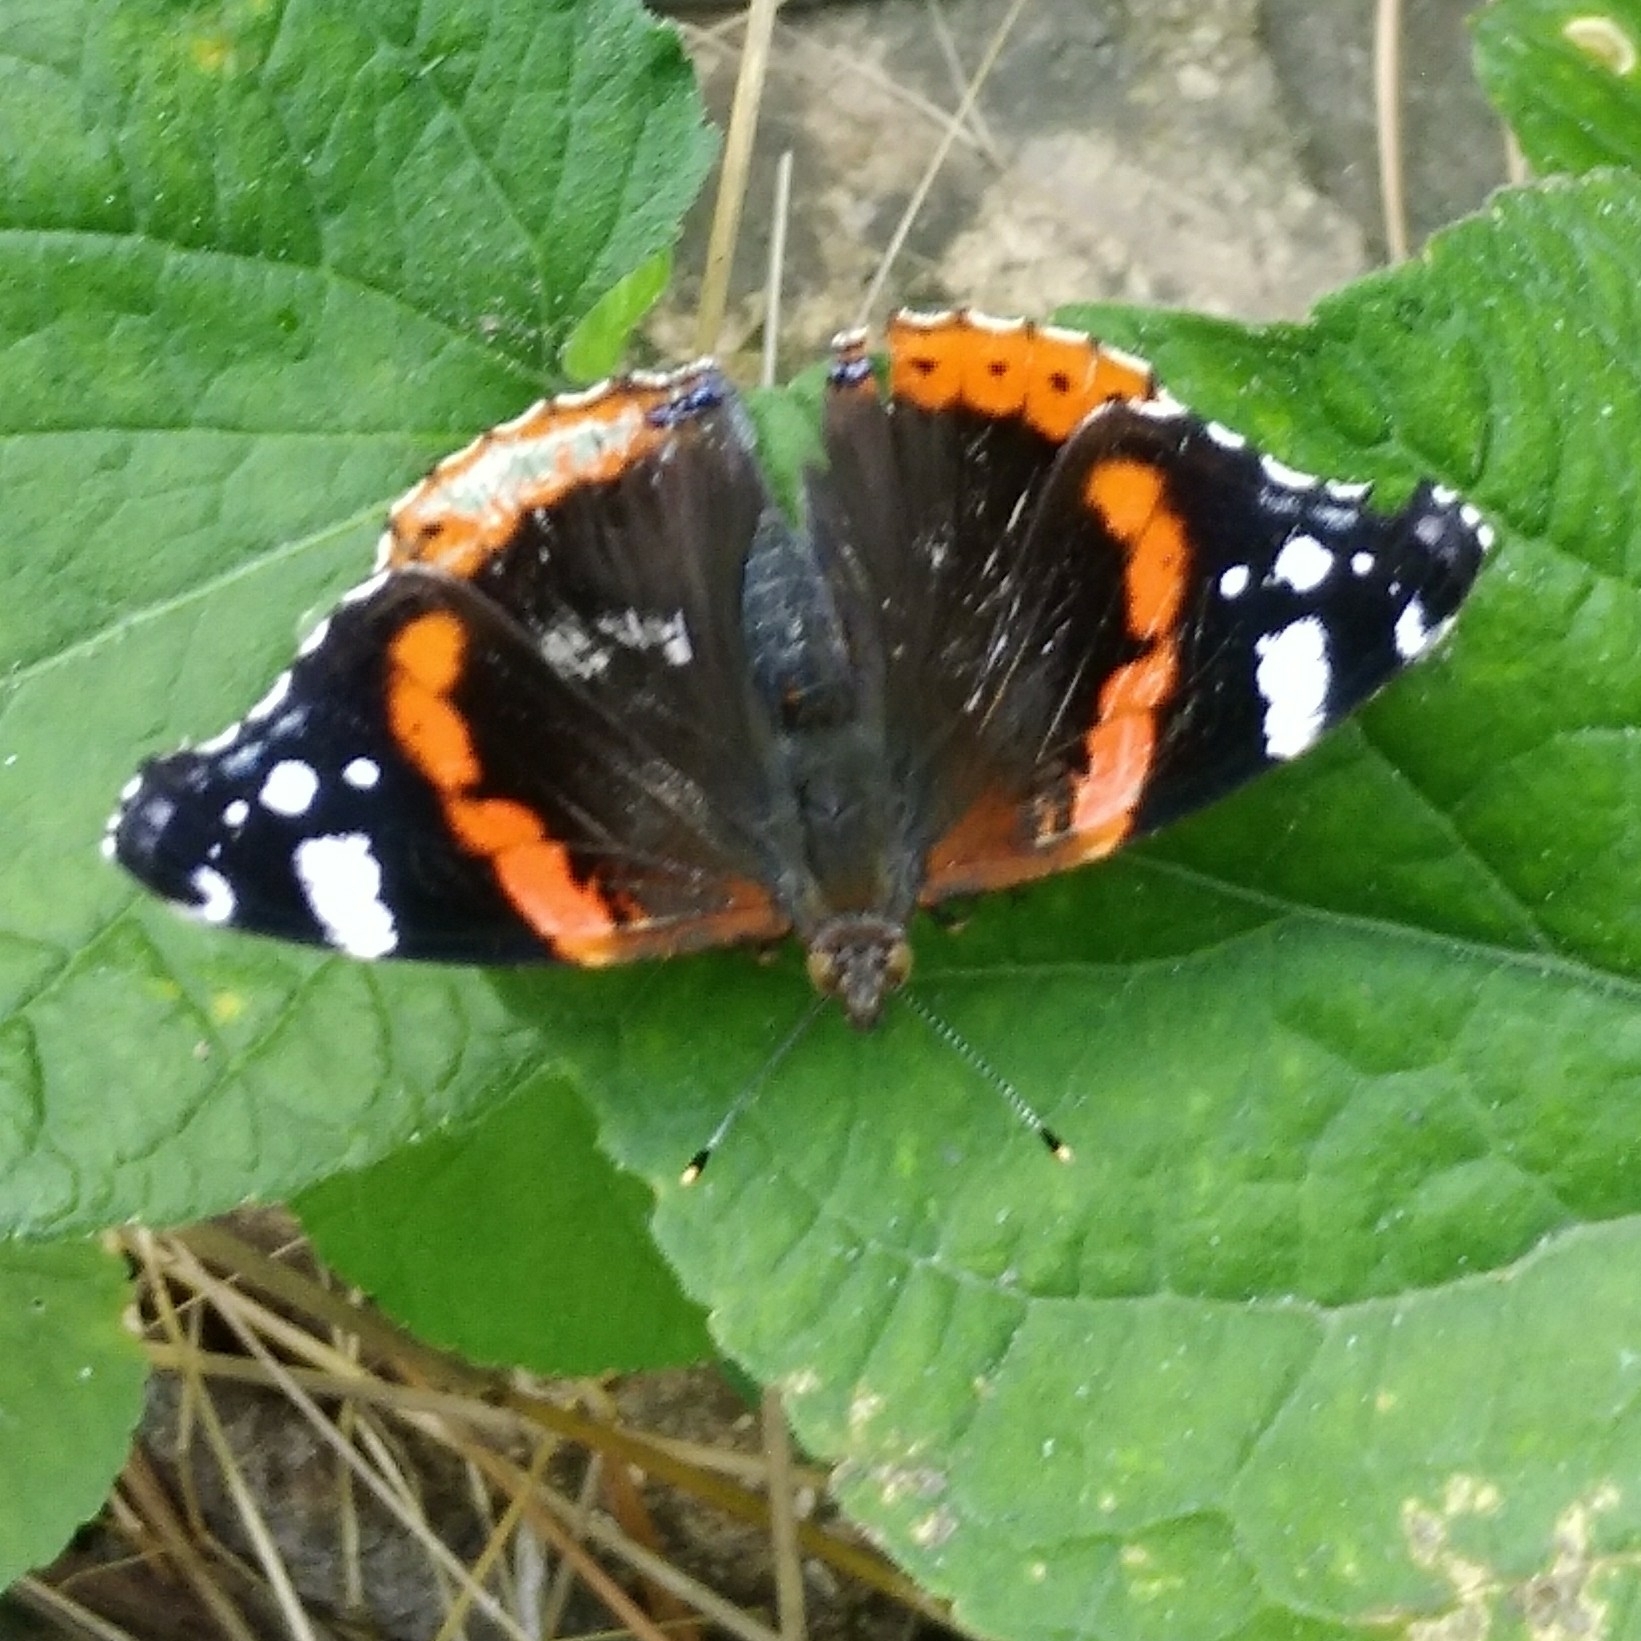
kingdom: Animalia
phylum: Arthropoda
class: Insecta
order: Lepidoptera
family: Nymphalidae
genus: Vanessa
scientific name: Vanessa atalanta
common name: Red admiral
